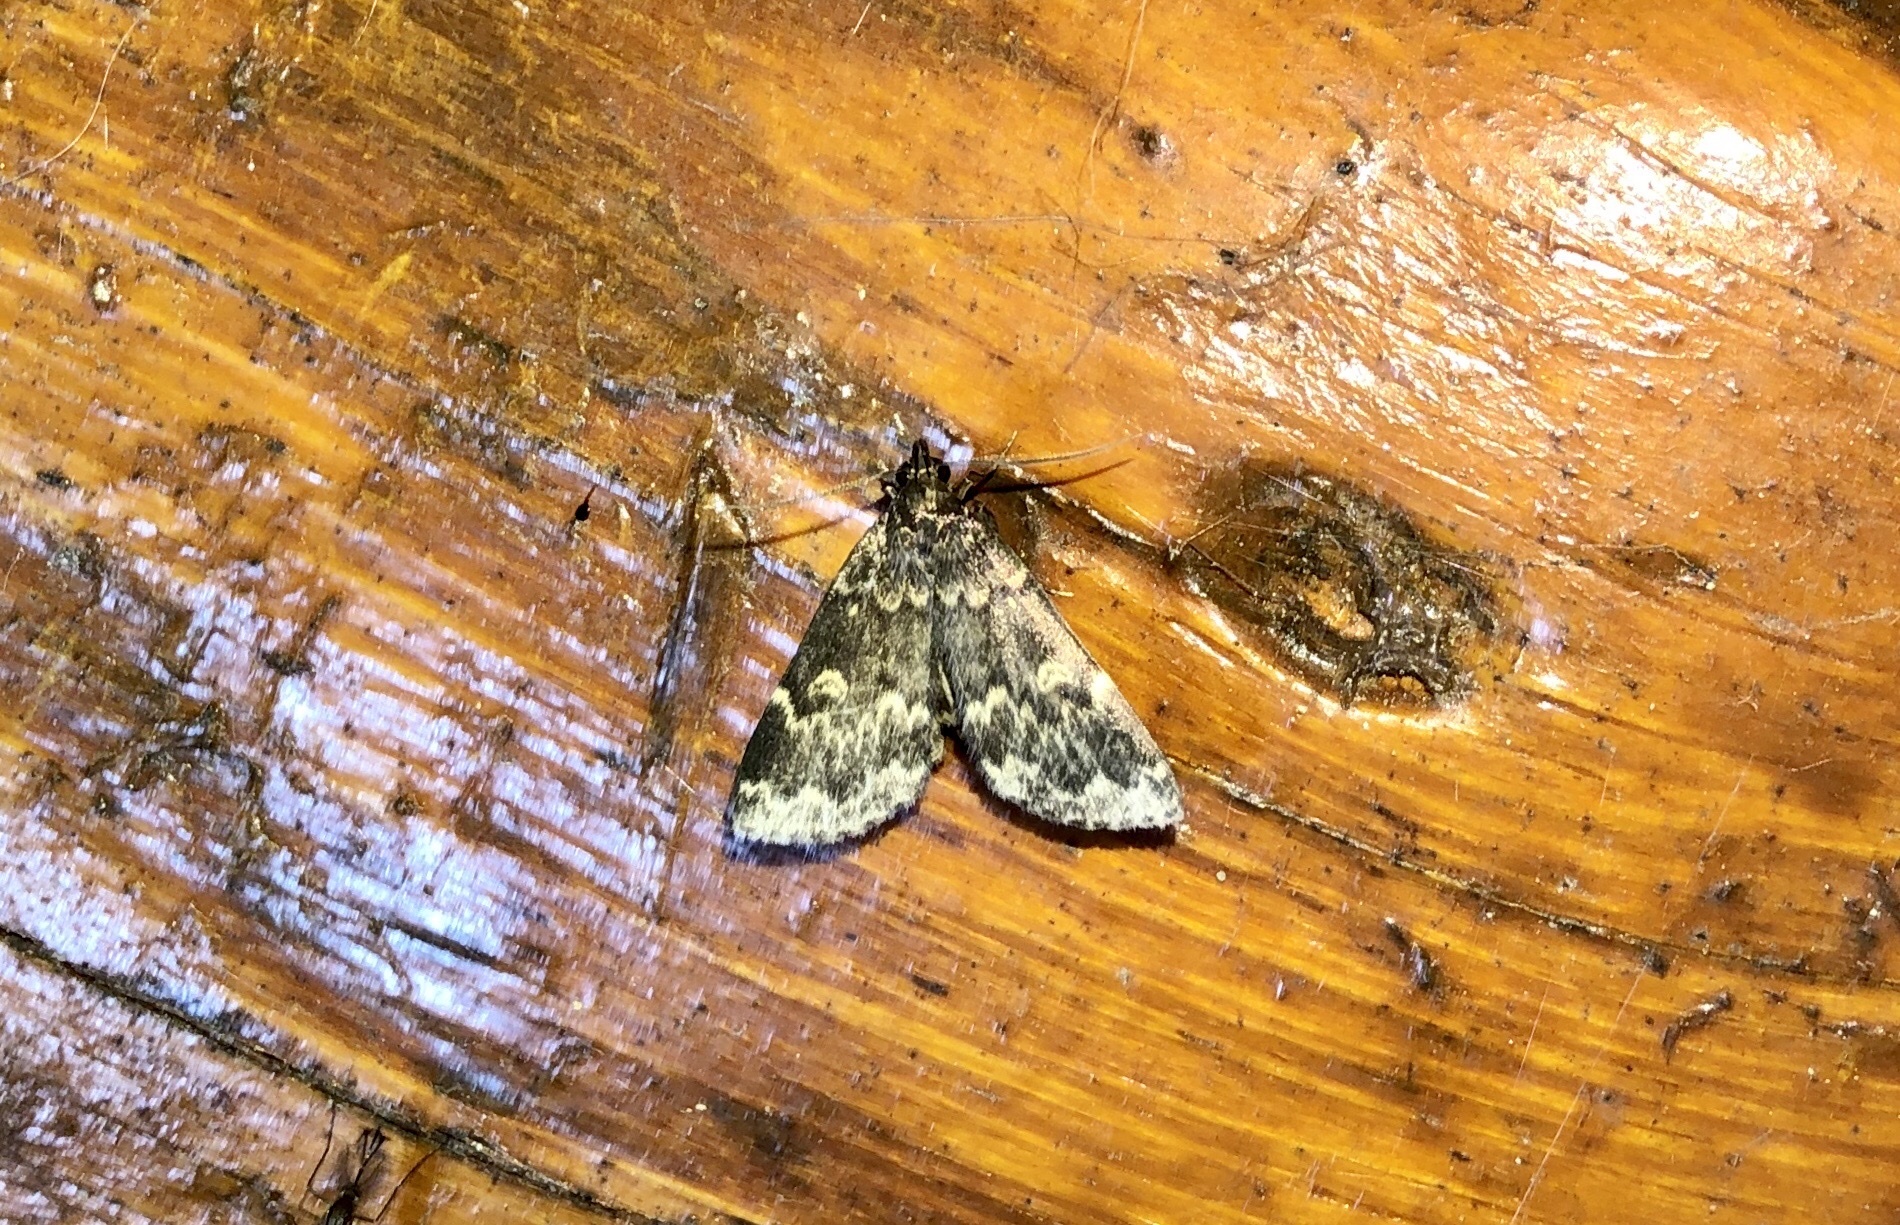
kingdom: Animalia
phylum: Arthropoda
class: Insecta
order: Lepidoptera
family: Erebidae
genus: Idia
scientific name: Idia lubricalis
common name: Twin-striped tabby
